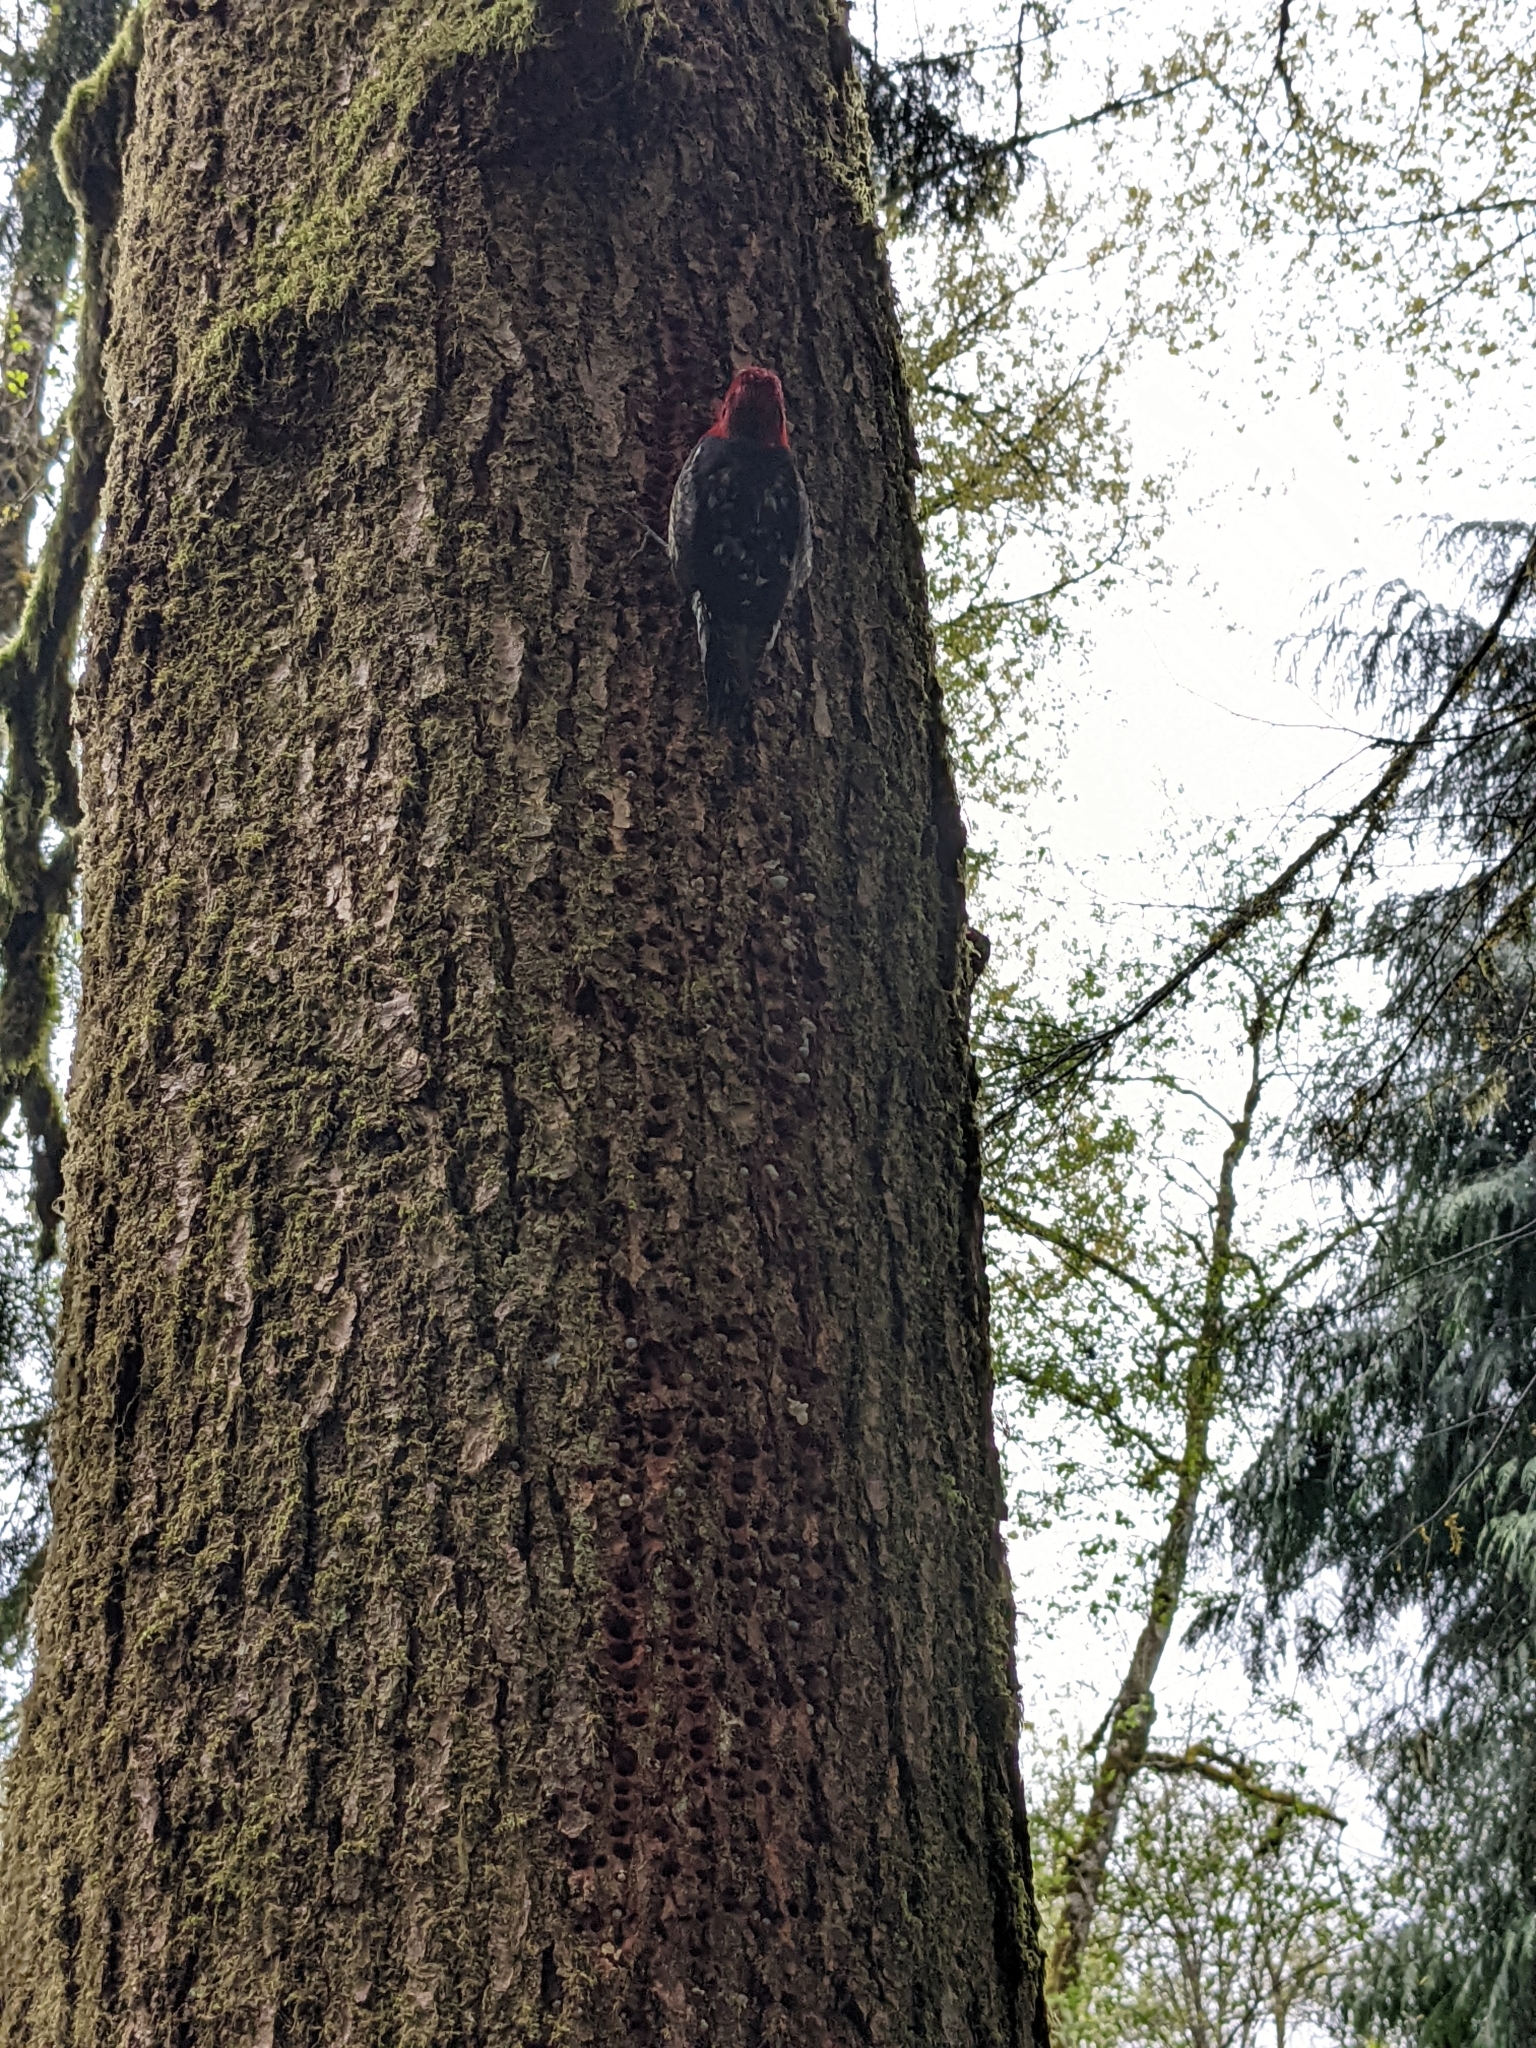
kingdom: Animalia
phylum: Chordata
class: Aves
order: Piciformes
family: Picidae
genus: Sphyrapicus
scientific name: Sphyrapicus ruber
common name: Red-breasted sapsucker
